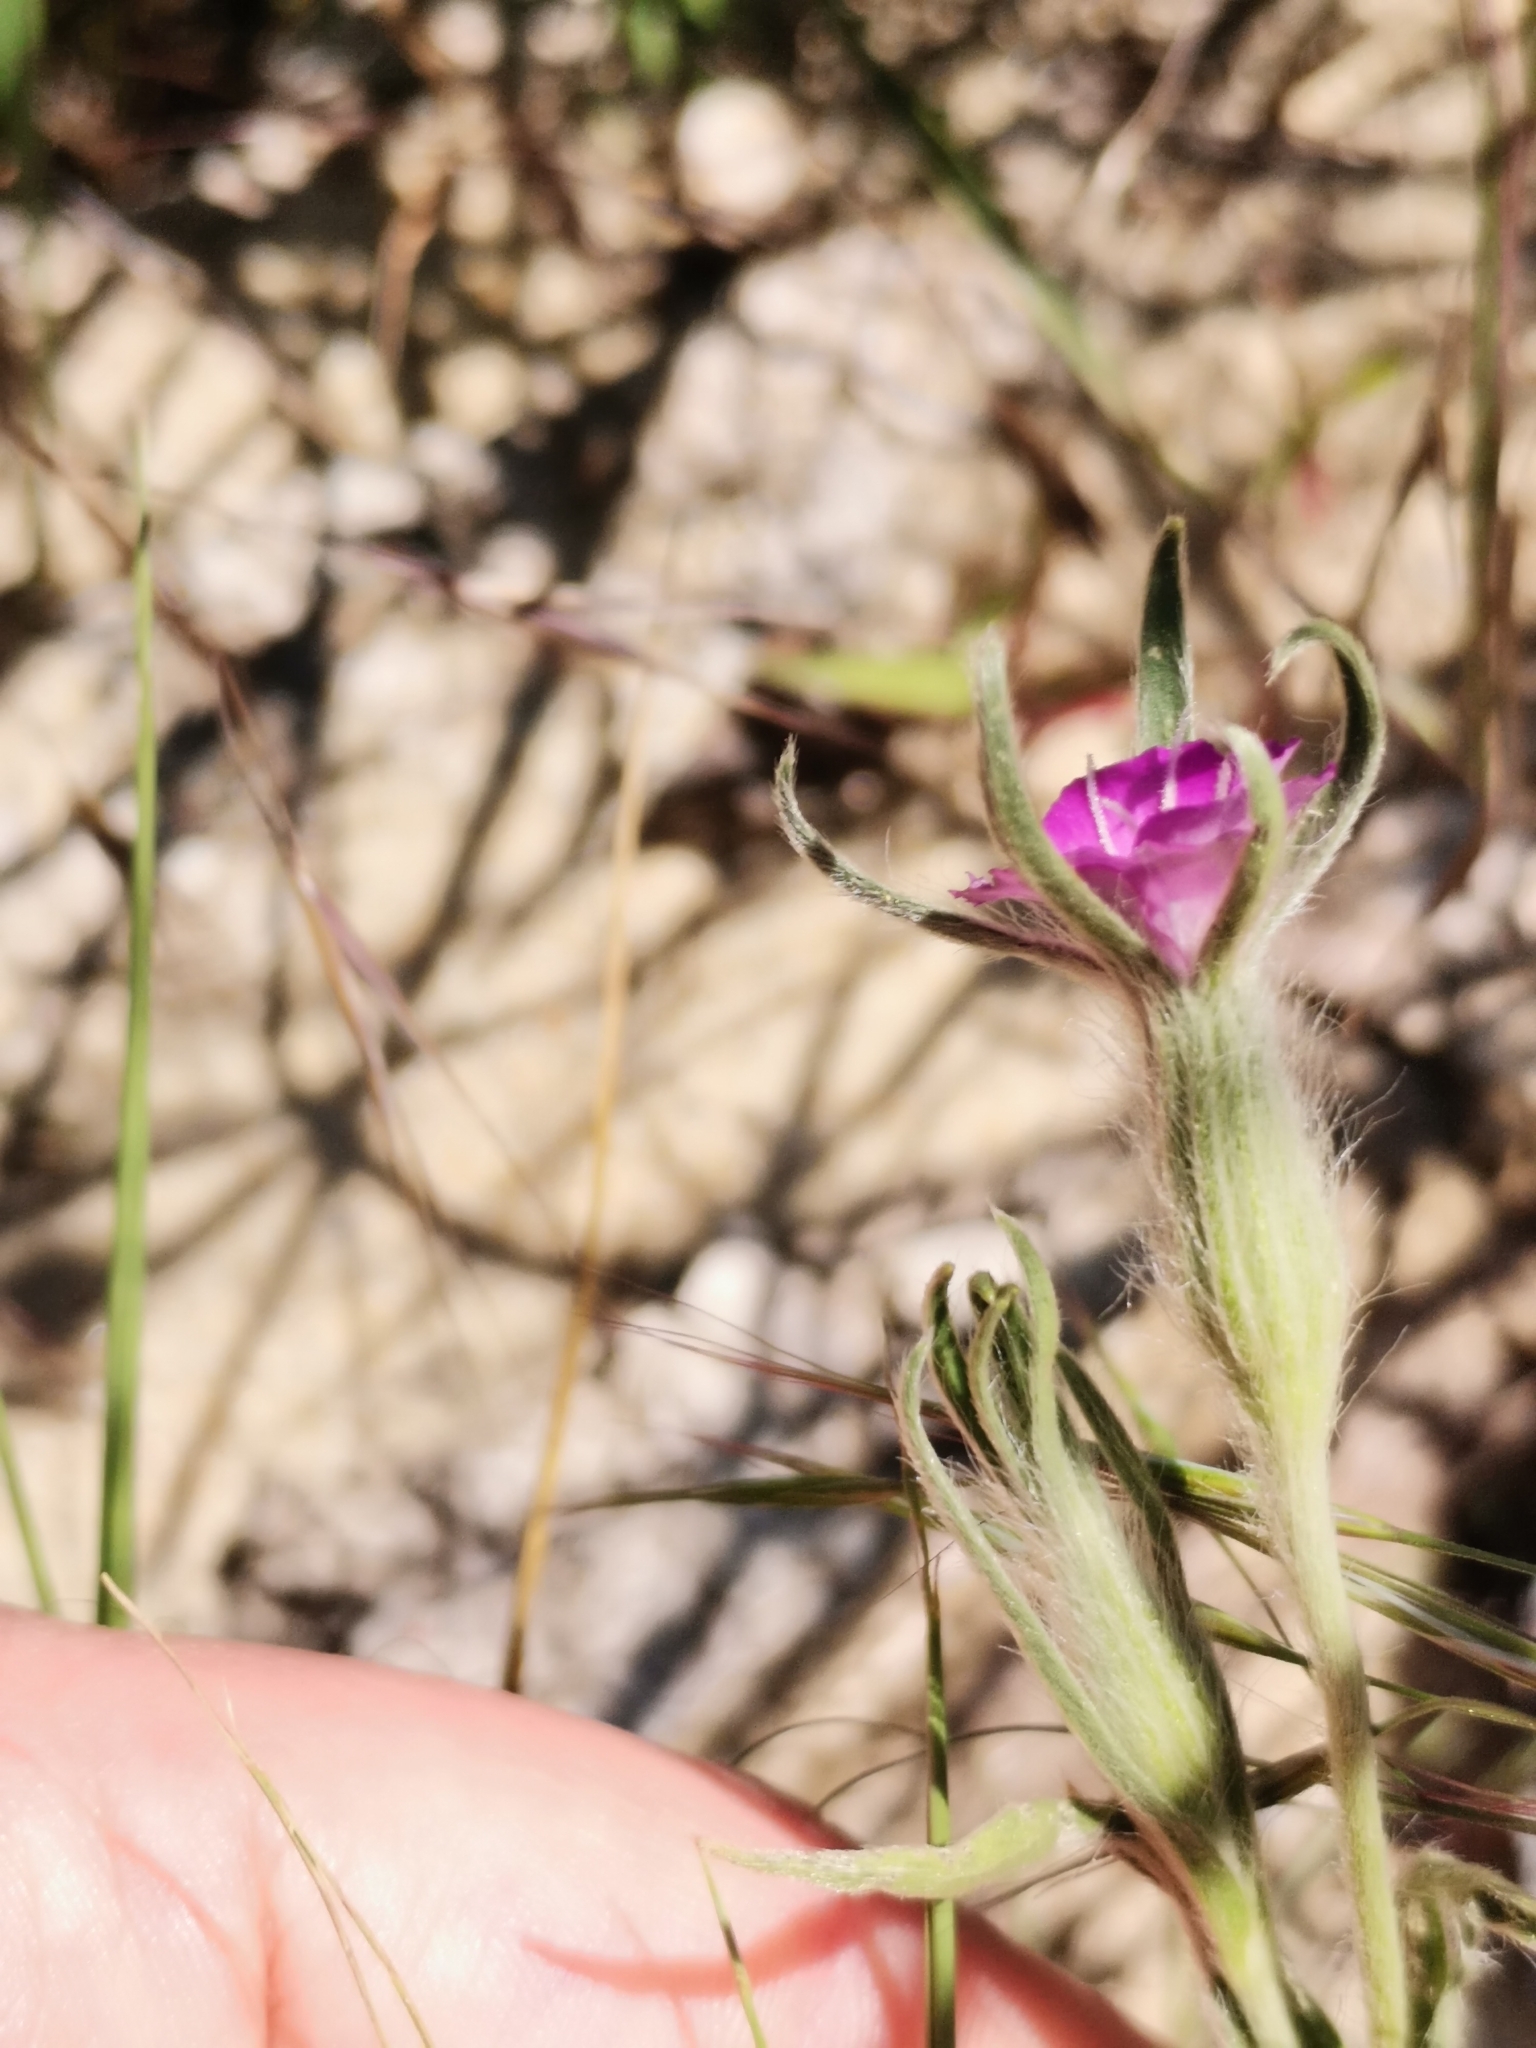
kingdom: Plantae
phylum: Tracheophyta
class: Magnoliopsida
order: Caryophyllales
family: Caryophyllaceae
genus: Agrostemma
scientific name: Agrostemma githago
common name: Common corncockle
